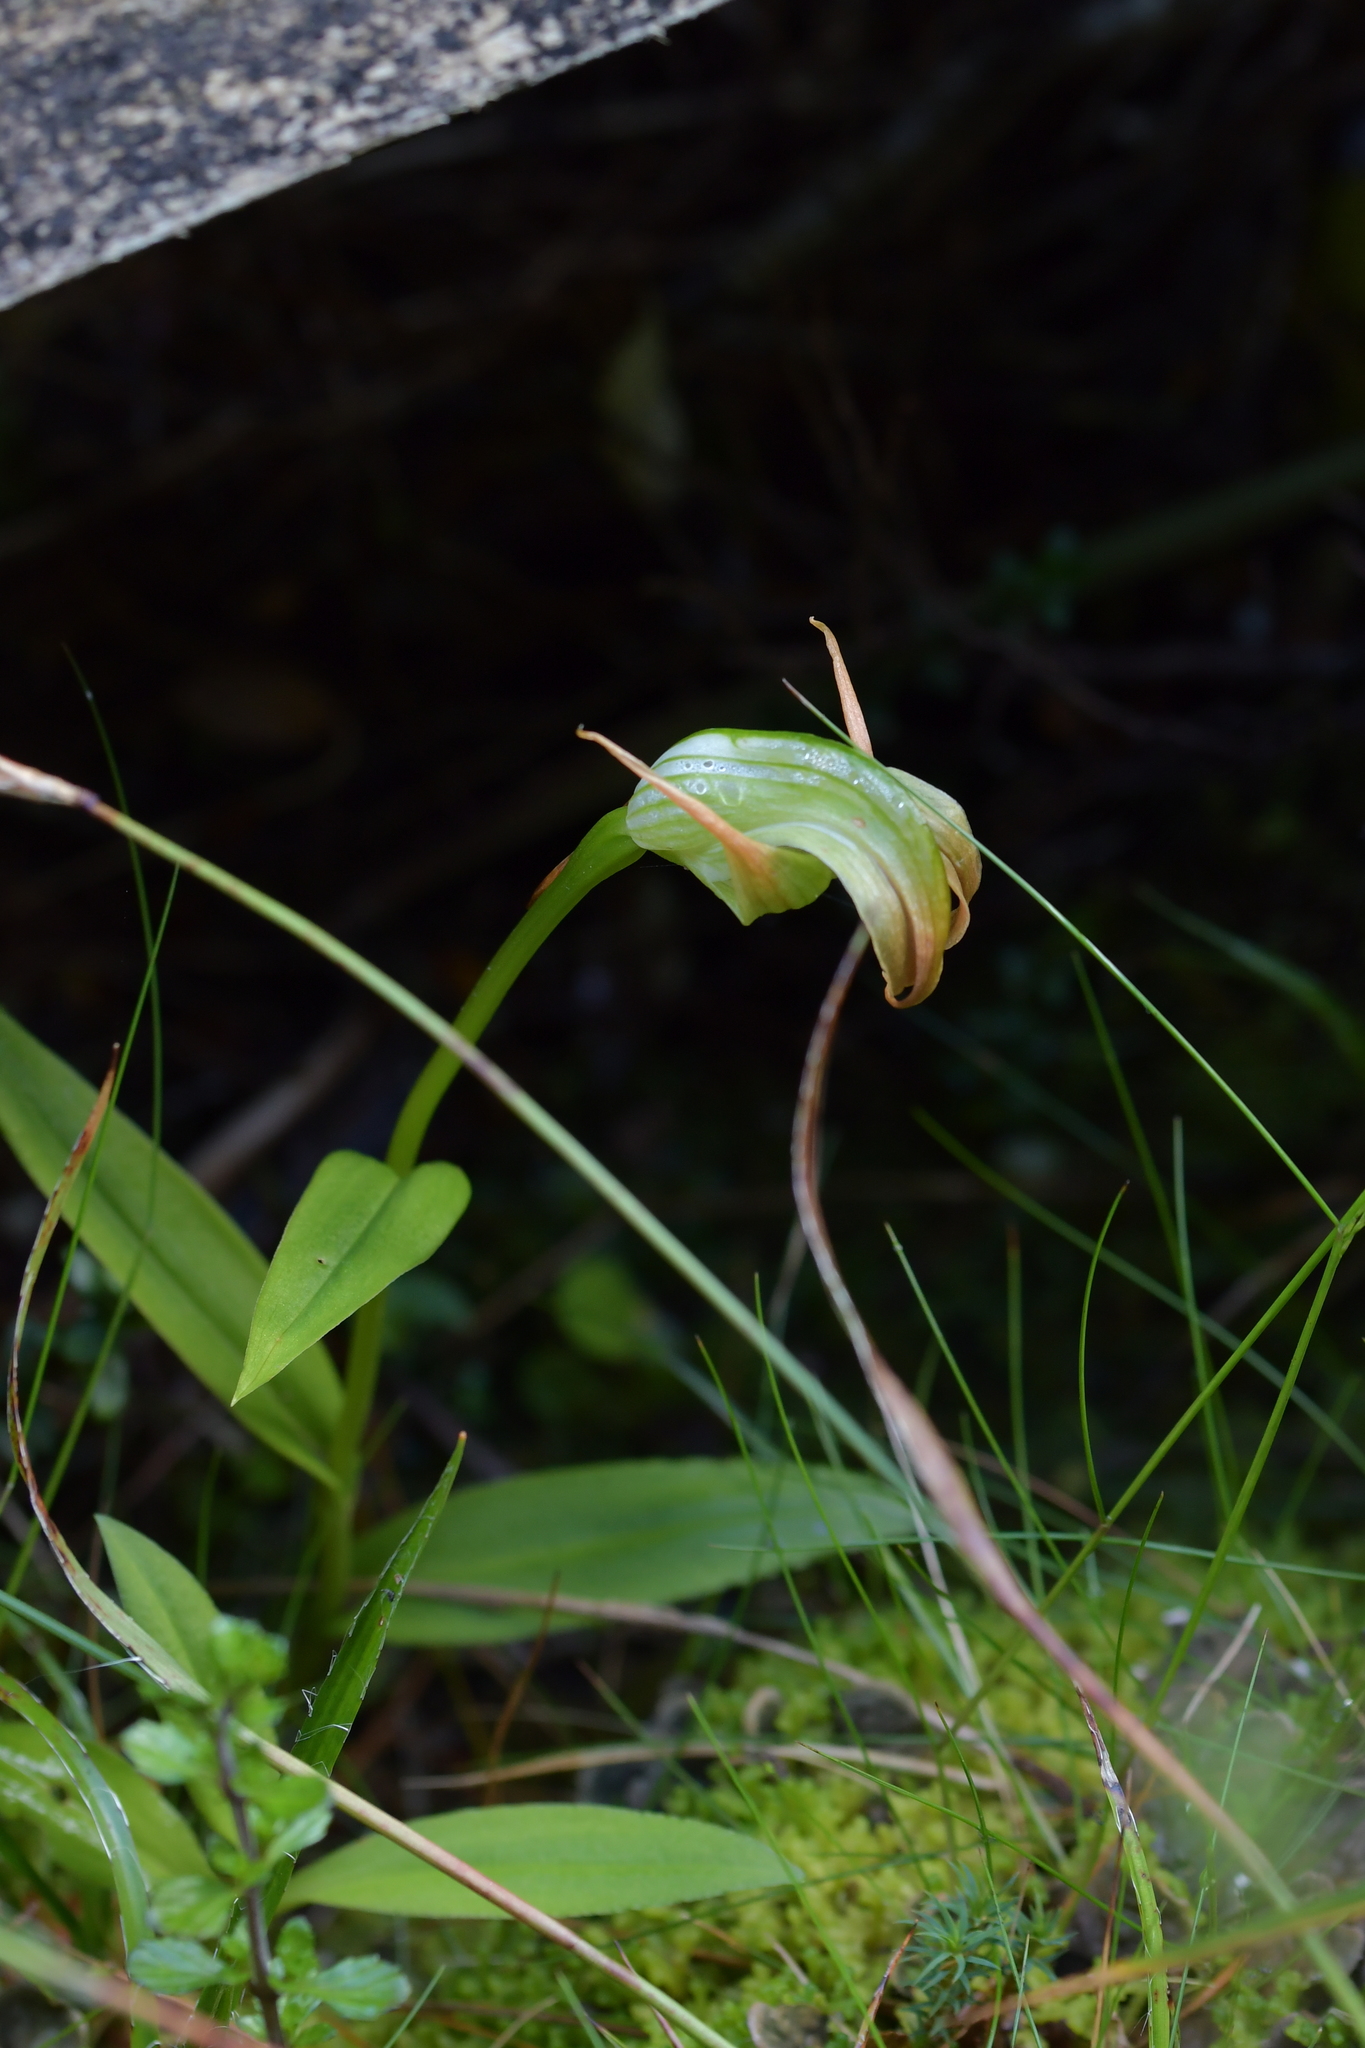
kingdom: Plantae
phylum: Tracheophyta
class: Liliopsida
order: Asparagales
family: Orchidaceae
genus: Pterostylis
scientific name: Pterostylis patens
